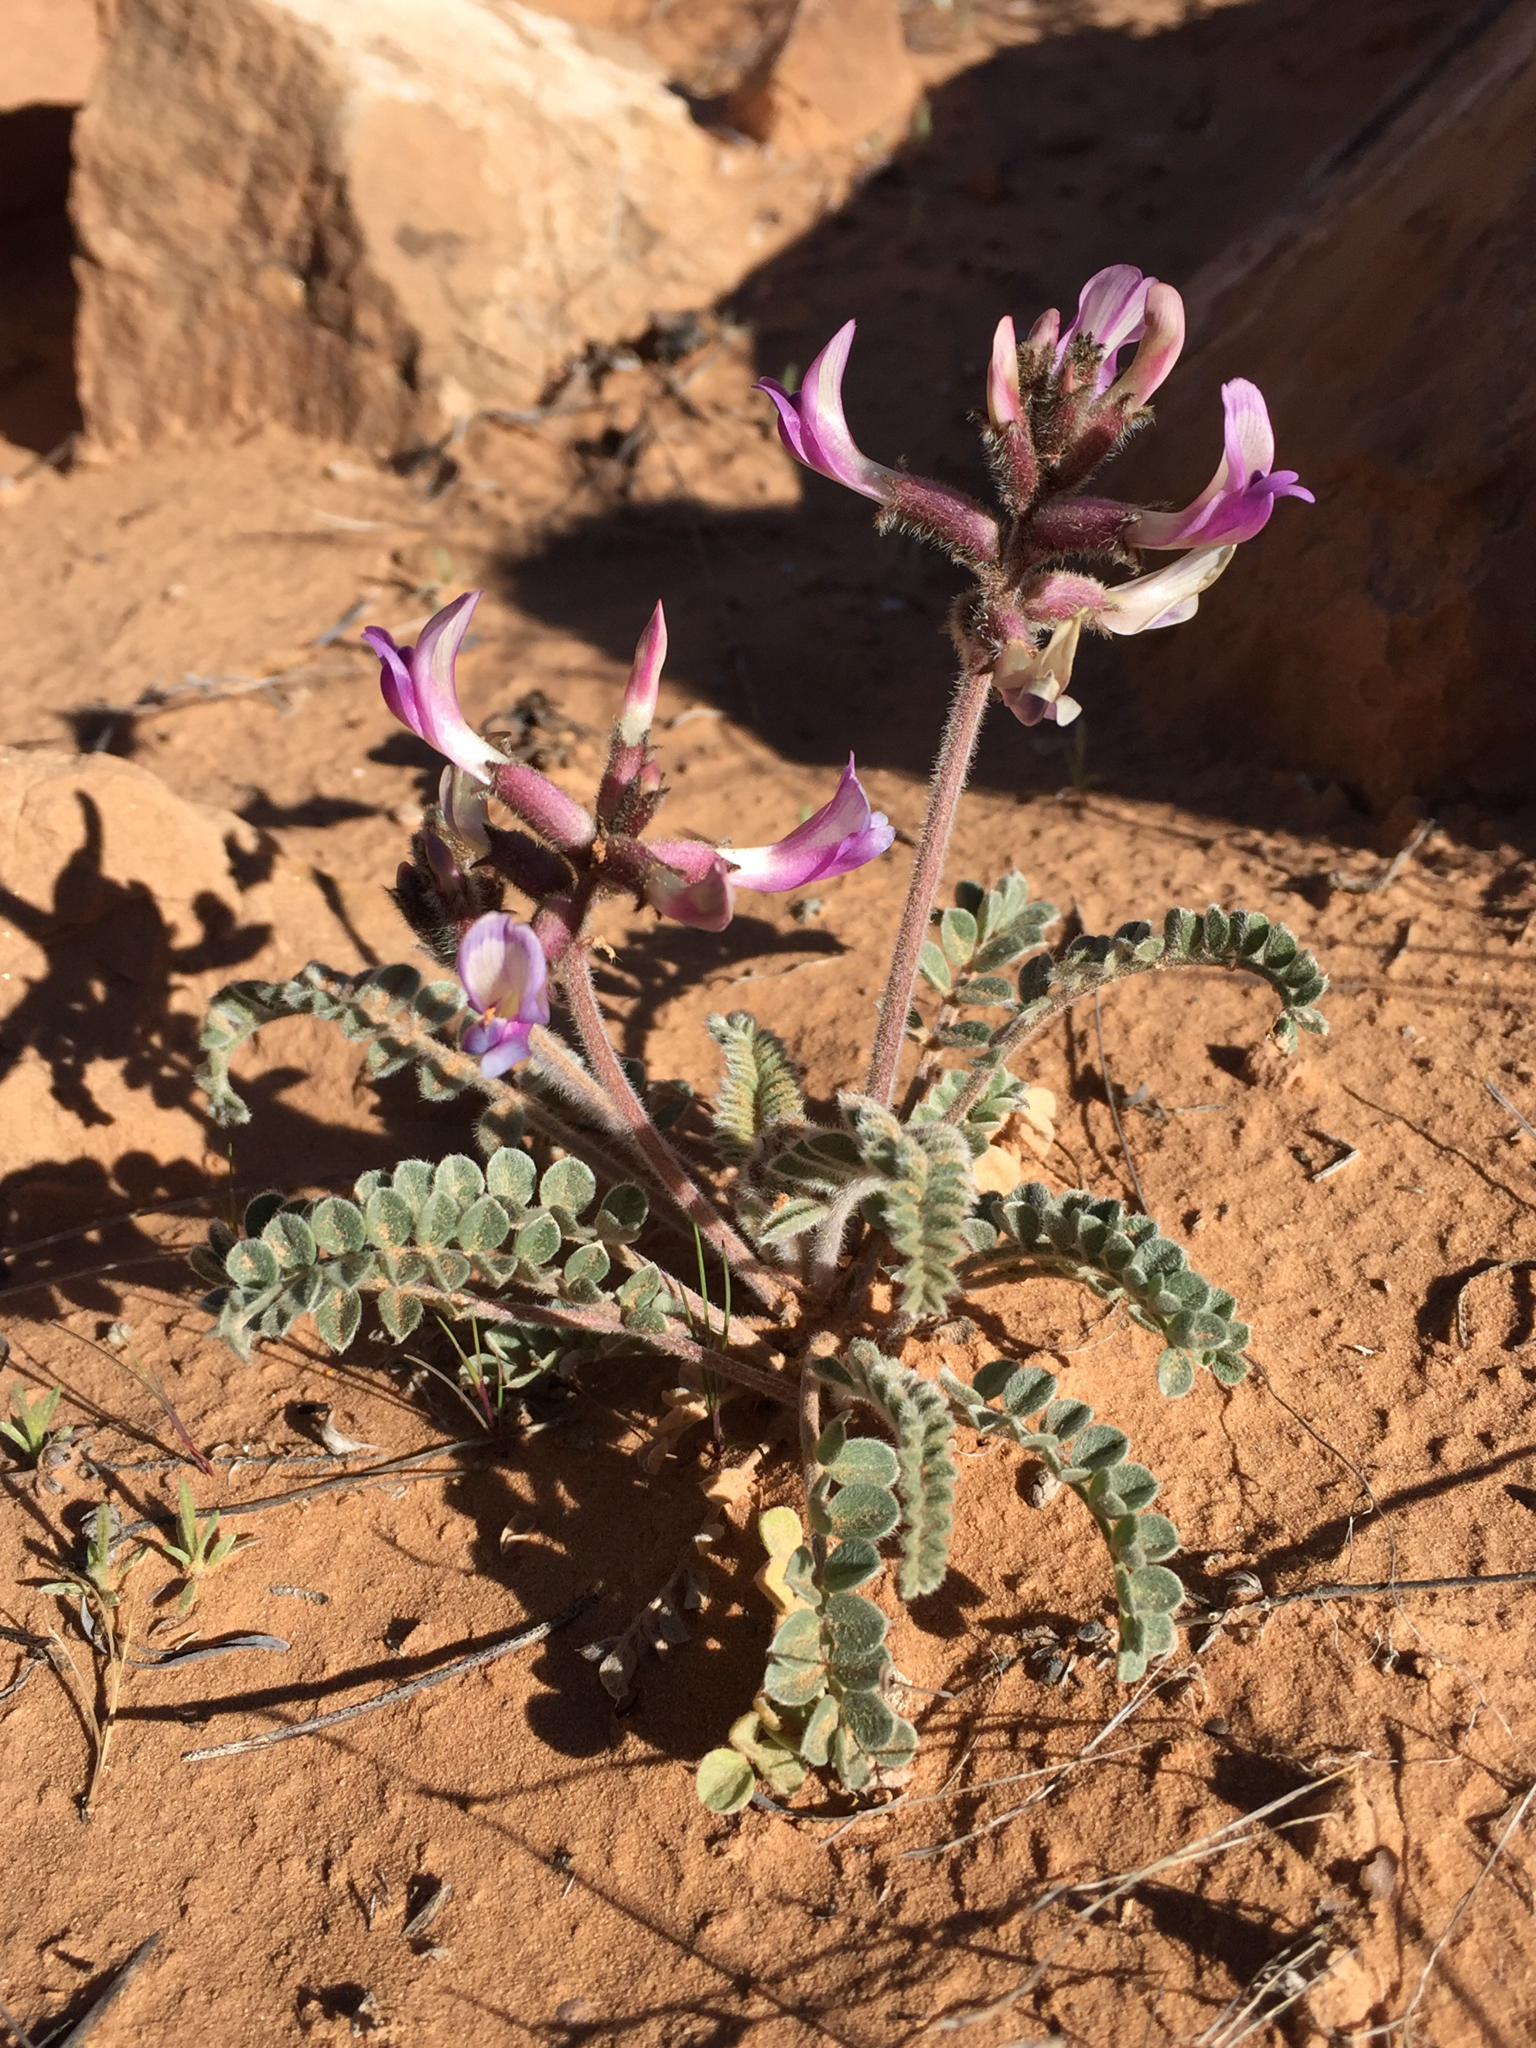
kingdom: Plantae
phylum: Tracheophyta
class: Magnoliopsida
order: Fabales
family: Fabaceae
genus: Astragalus
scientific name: Astragalus mollissimus
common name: Woolly locoweed
